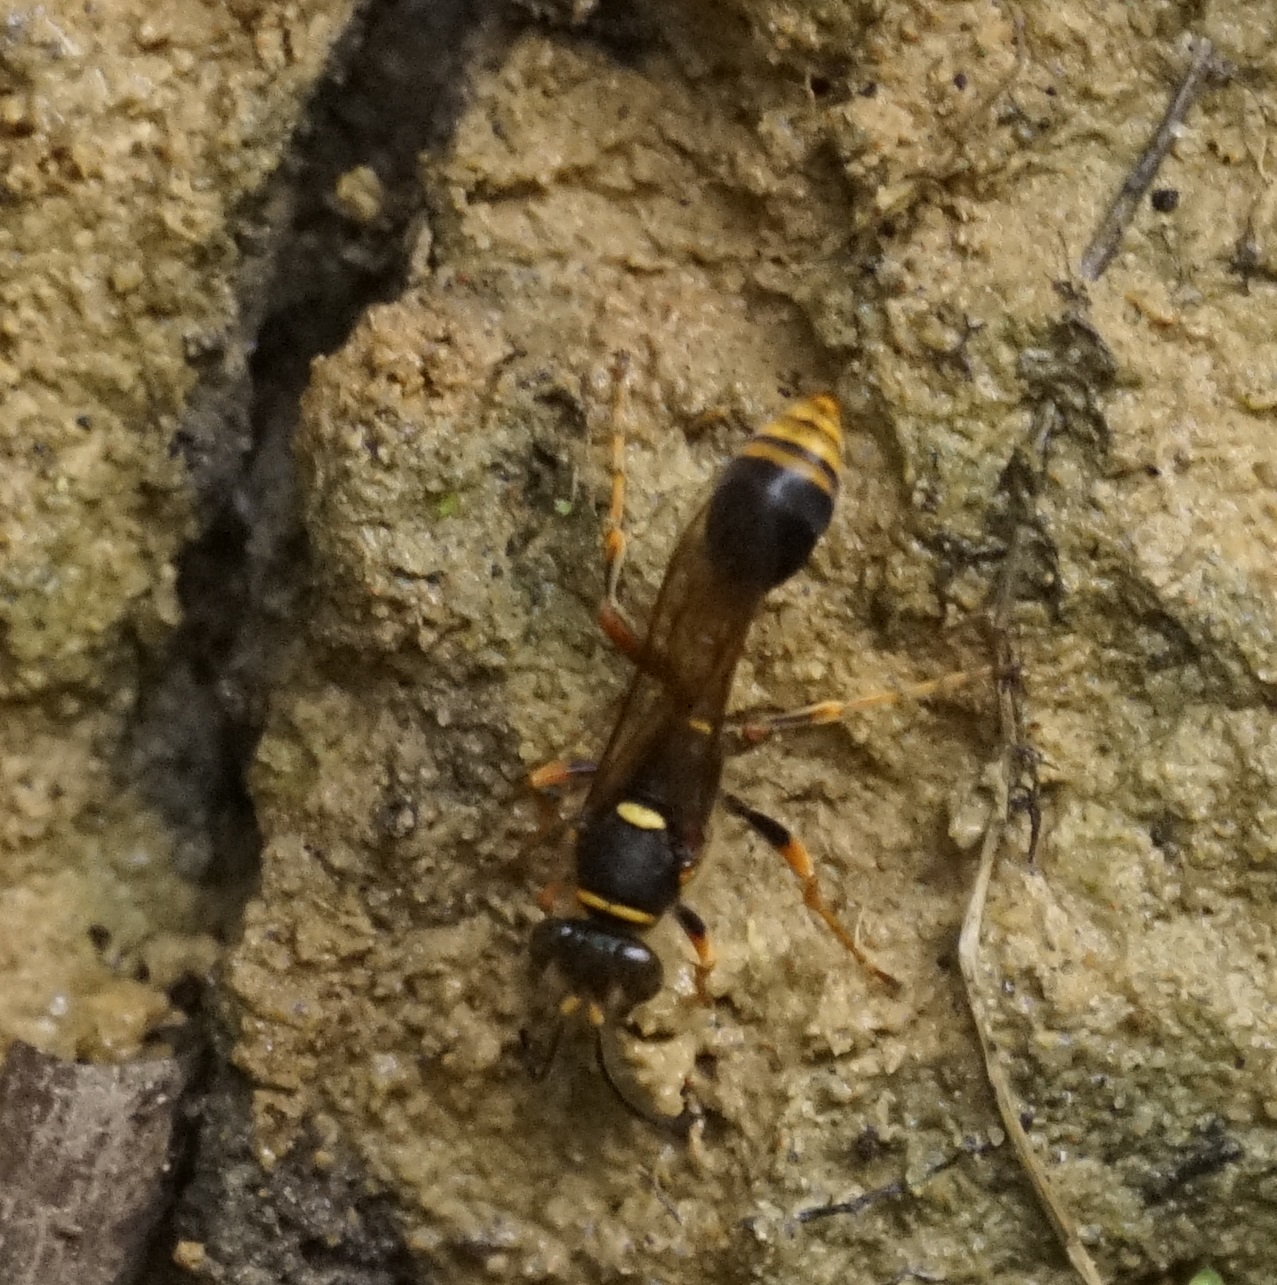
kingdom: Animalia
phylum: Arthropoda
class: Insecta
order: Hymenoptera
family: Sphecidae
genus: Sceliphron
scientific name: Sceliphron formosum
